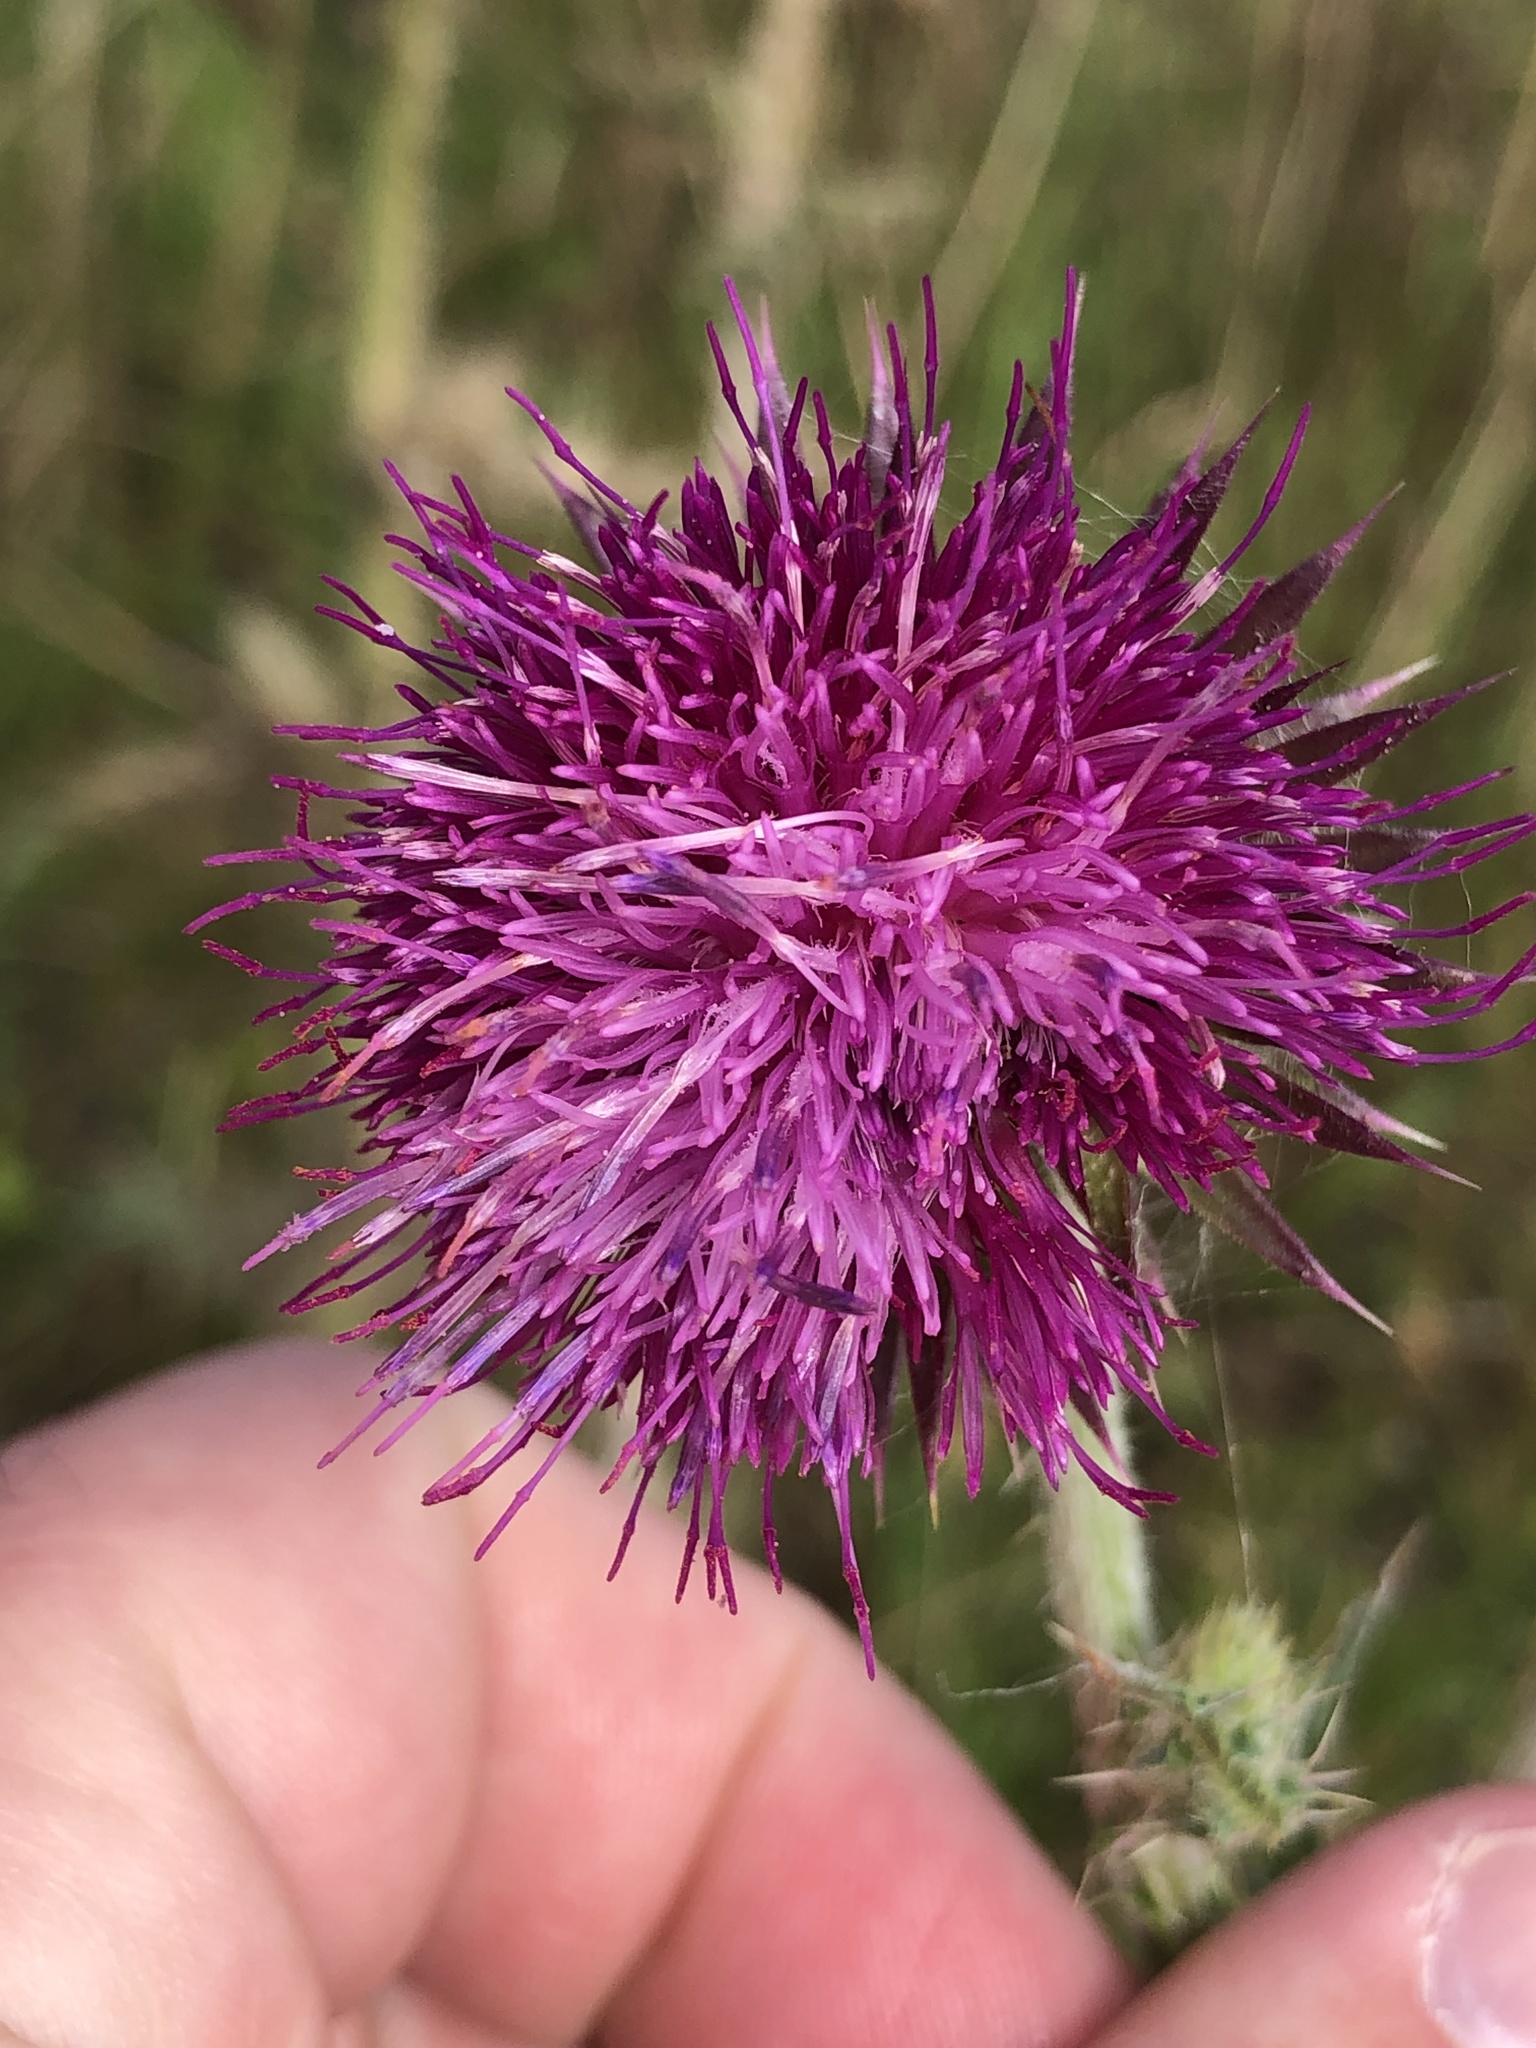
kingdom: Plantae
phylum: Tracheophyta
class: Magnoliopsida
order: Asterales
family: Asteraceae
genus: Carduus
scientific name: Carduus nutans
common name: Musk thistle
